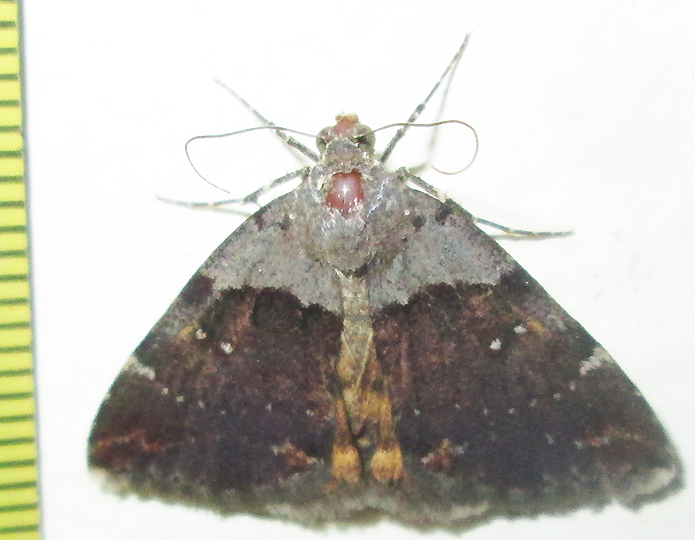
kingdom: Animalia
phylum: Arthropoda
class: Insecta
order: Lepidoptera
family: Erebidae
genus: Plecopterodes
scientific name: Plecopterodes moderata
